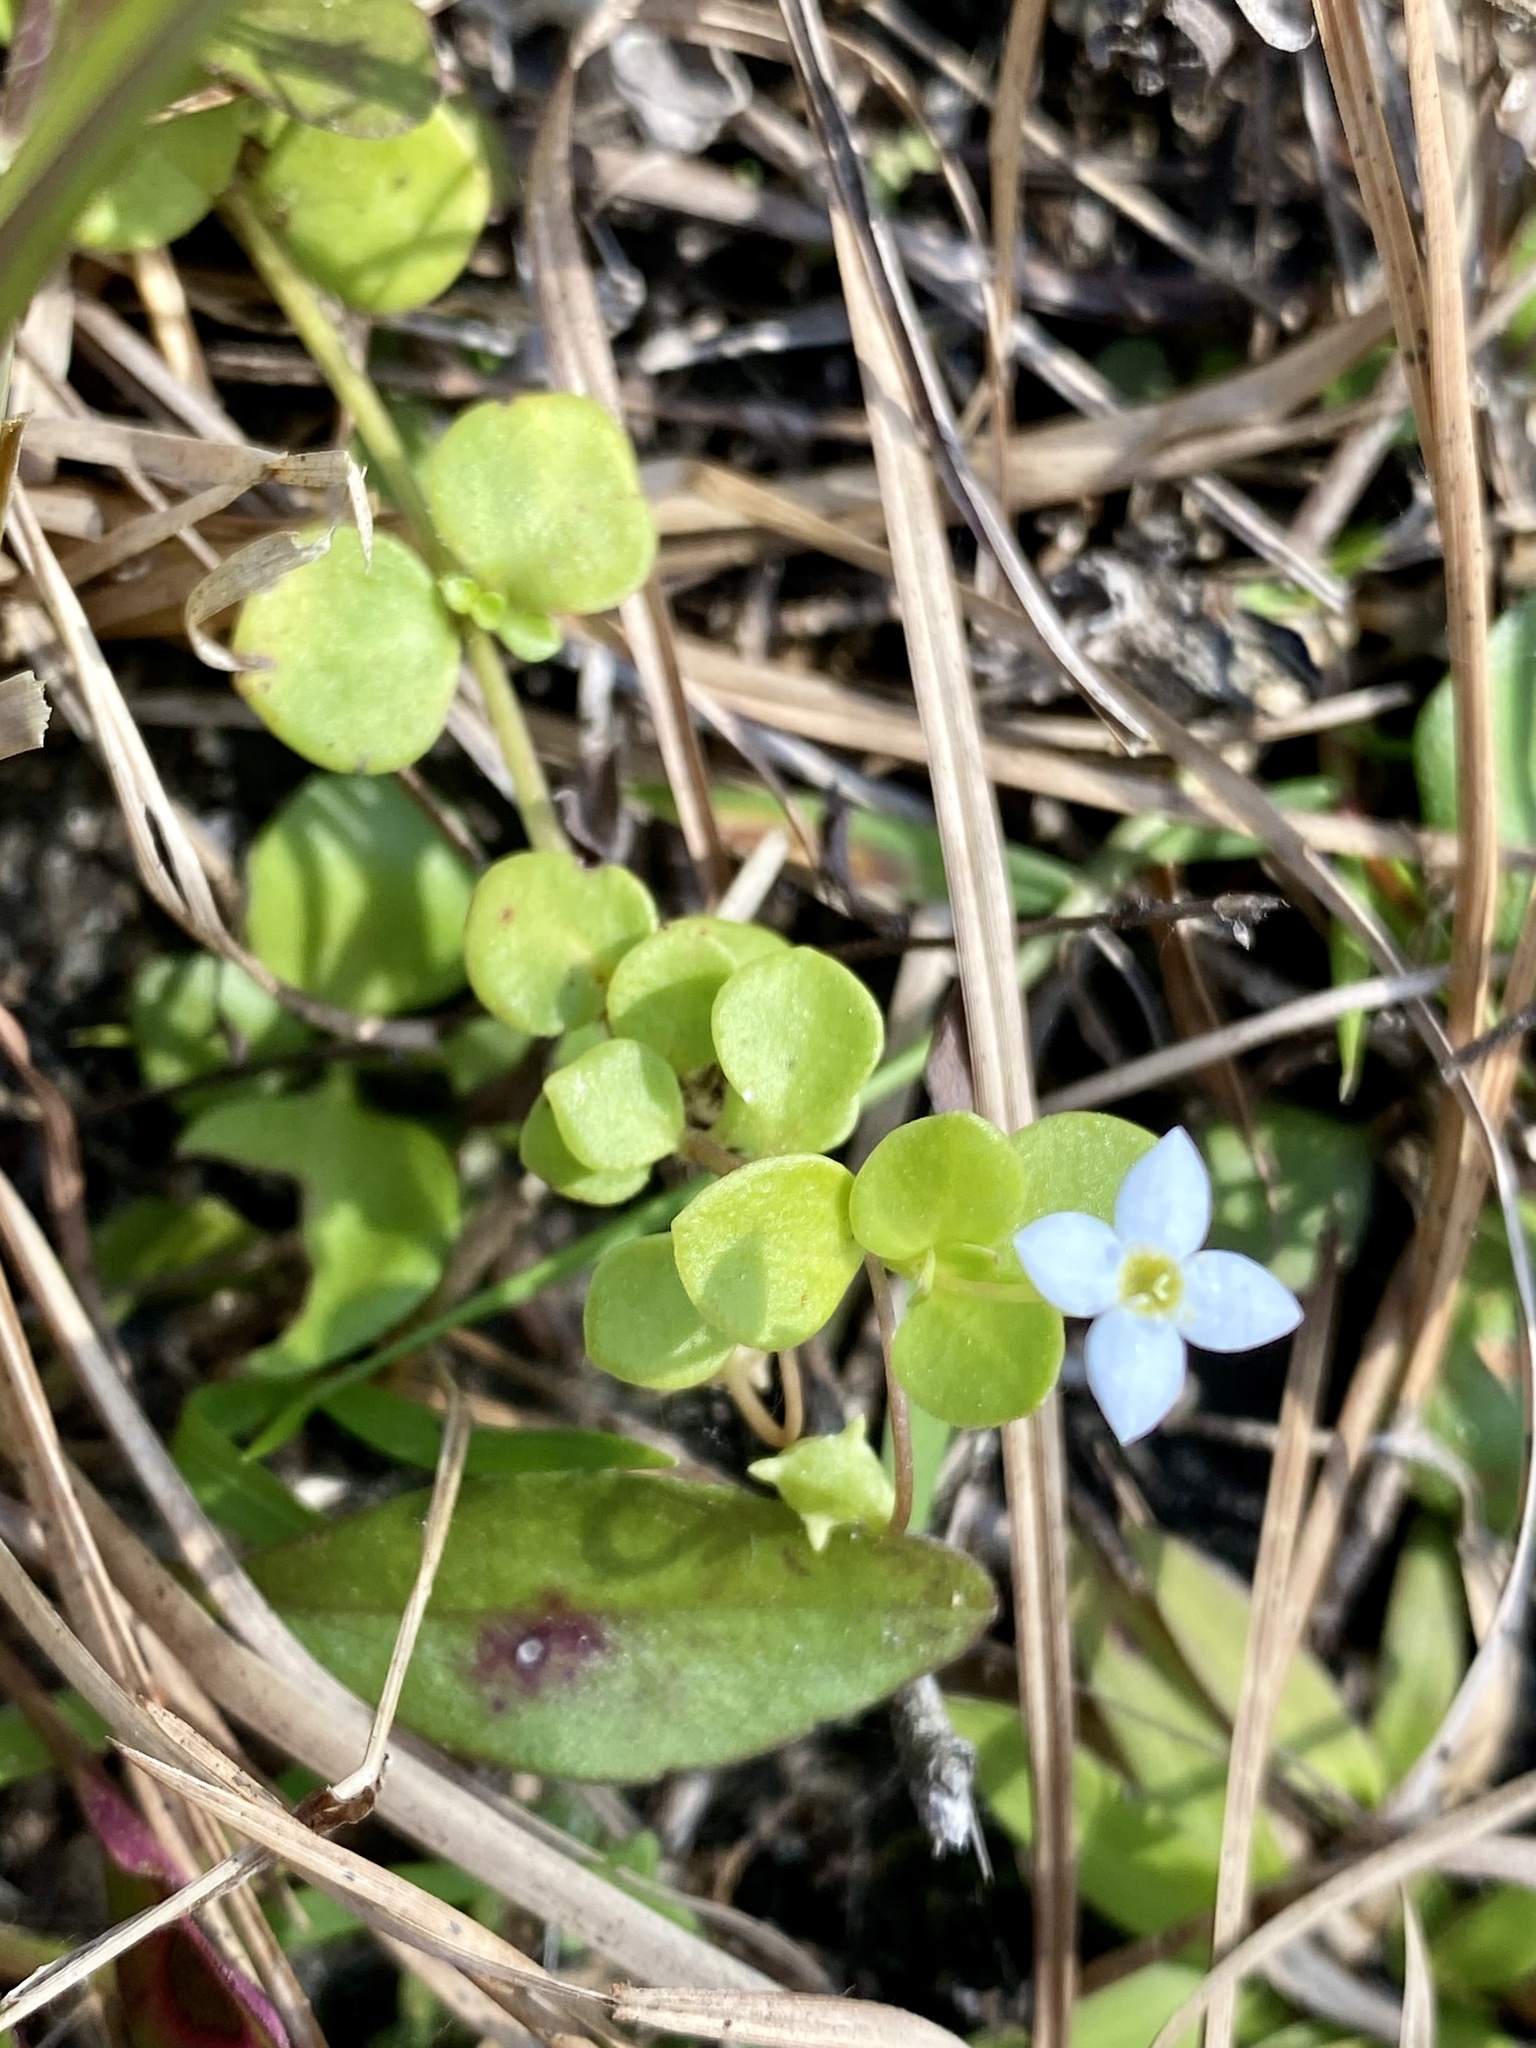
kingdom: Plantae
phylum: Tracheophyta
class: Magnoliopsida
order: Gentianales
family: Rubiaceae
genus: Houstonia
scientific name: Houstonia procumbens
